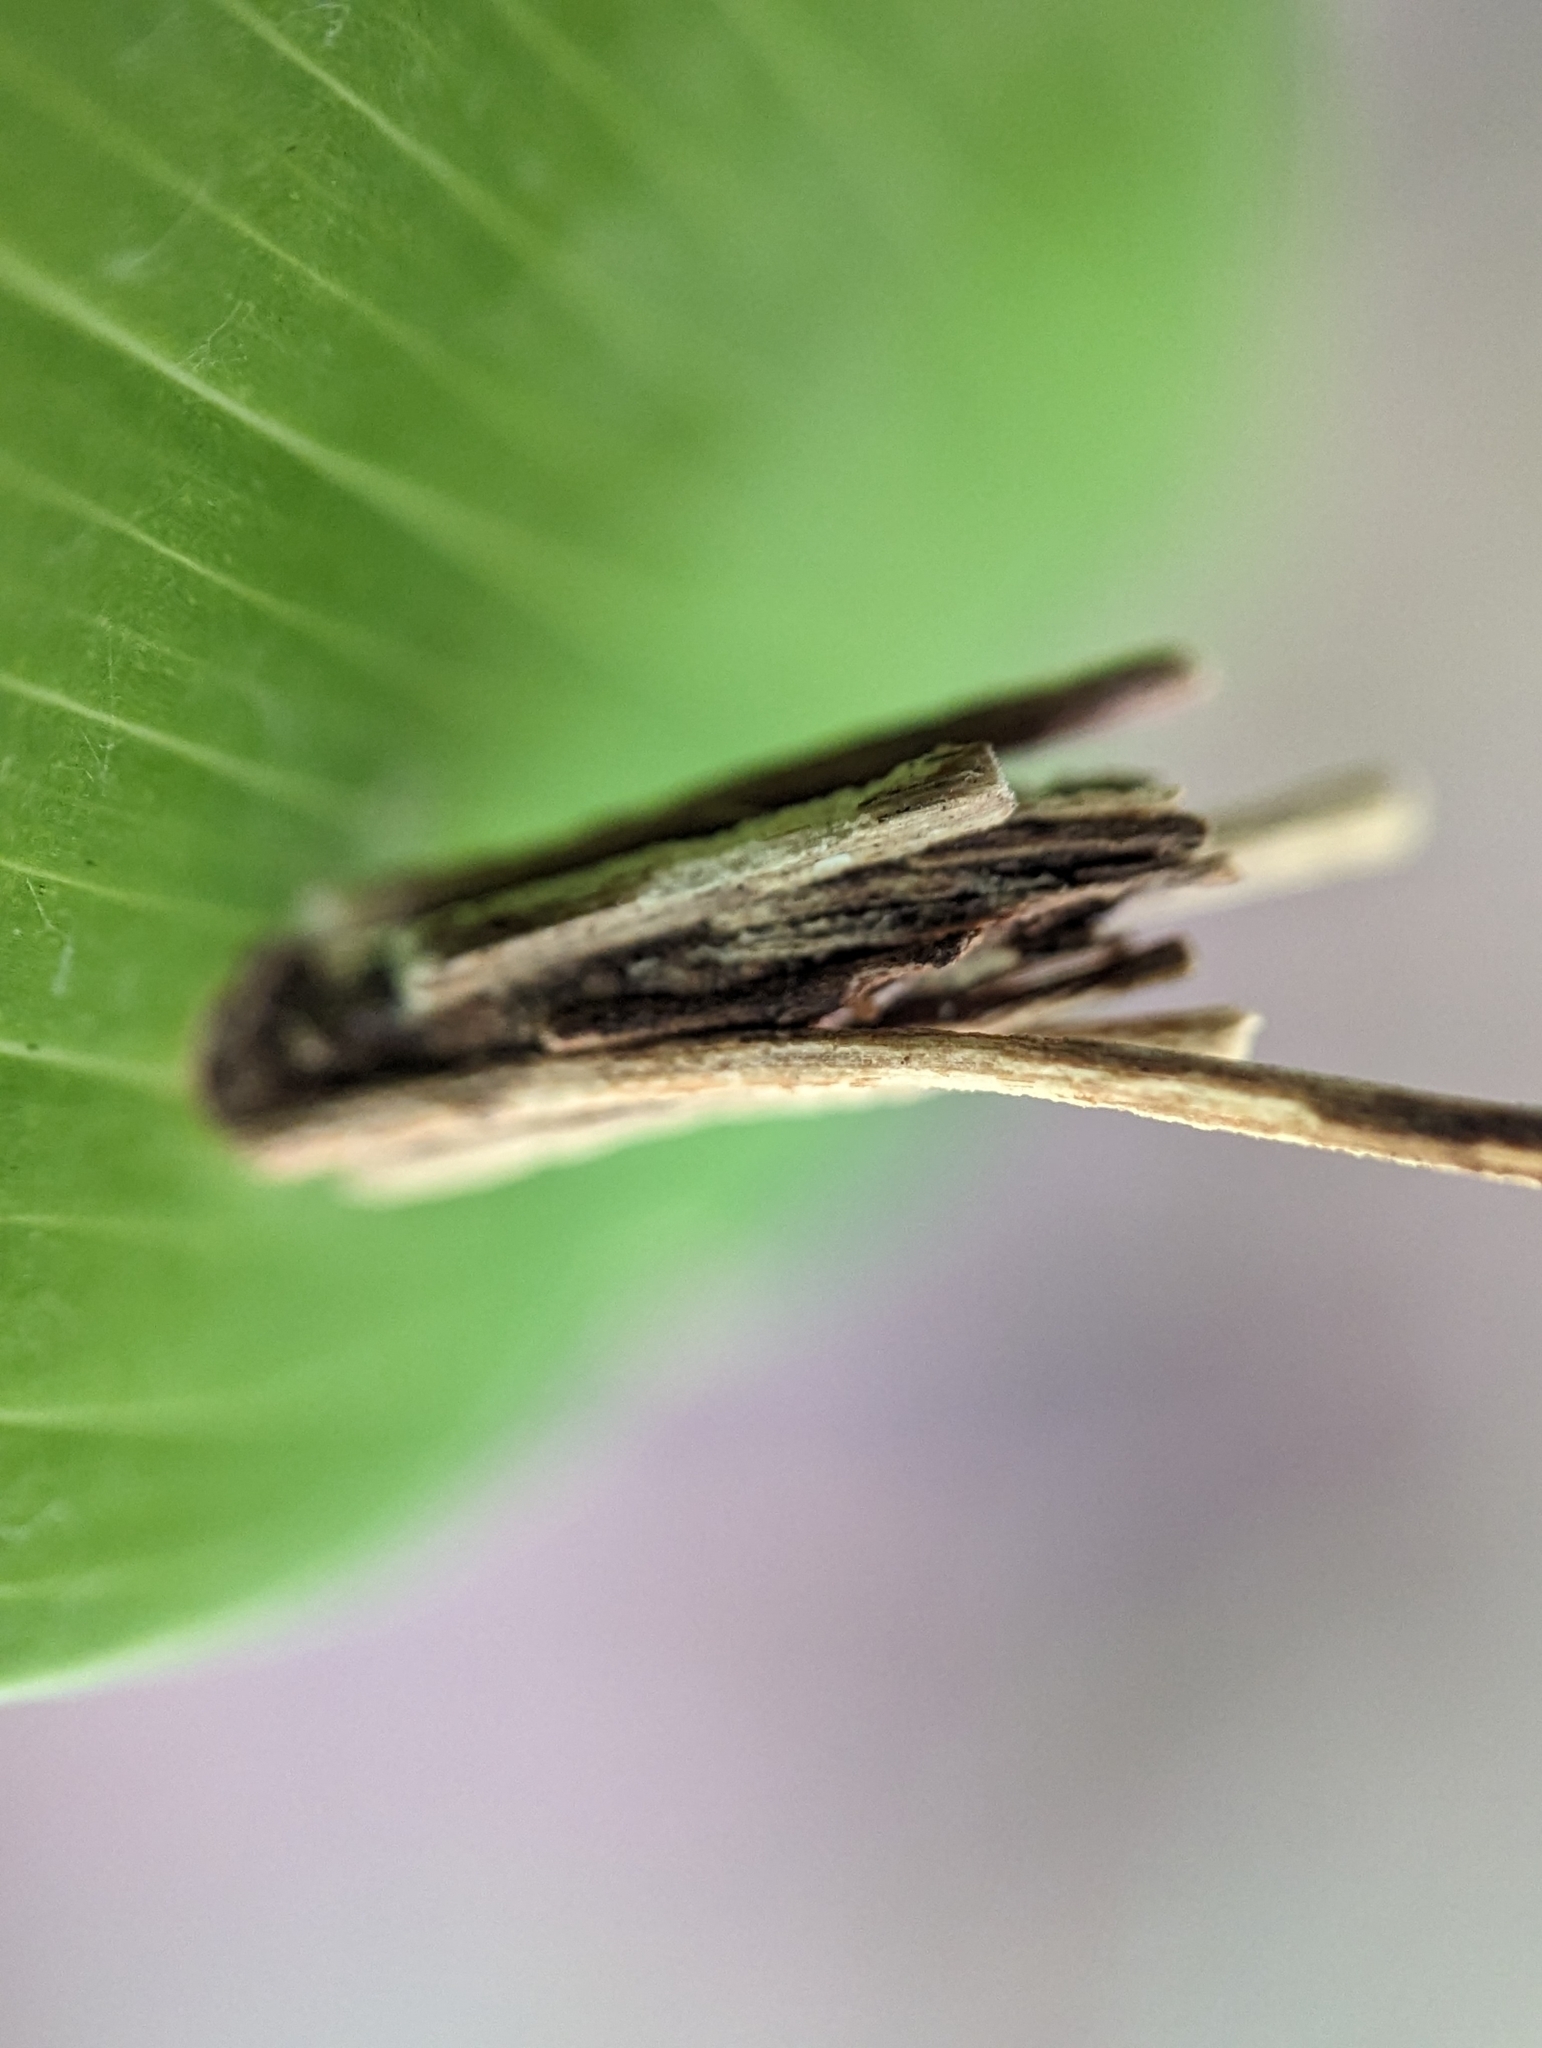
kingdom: Animalia
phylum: Arthropoda
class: Insecta
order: Lepidoptera
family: Psychidae
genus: Psyche
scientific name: Psyche casta
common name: Common sweep
